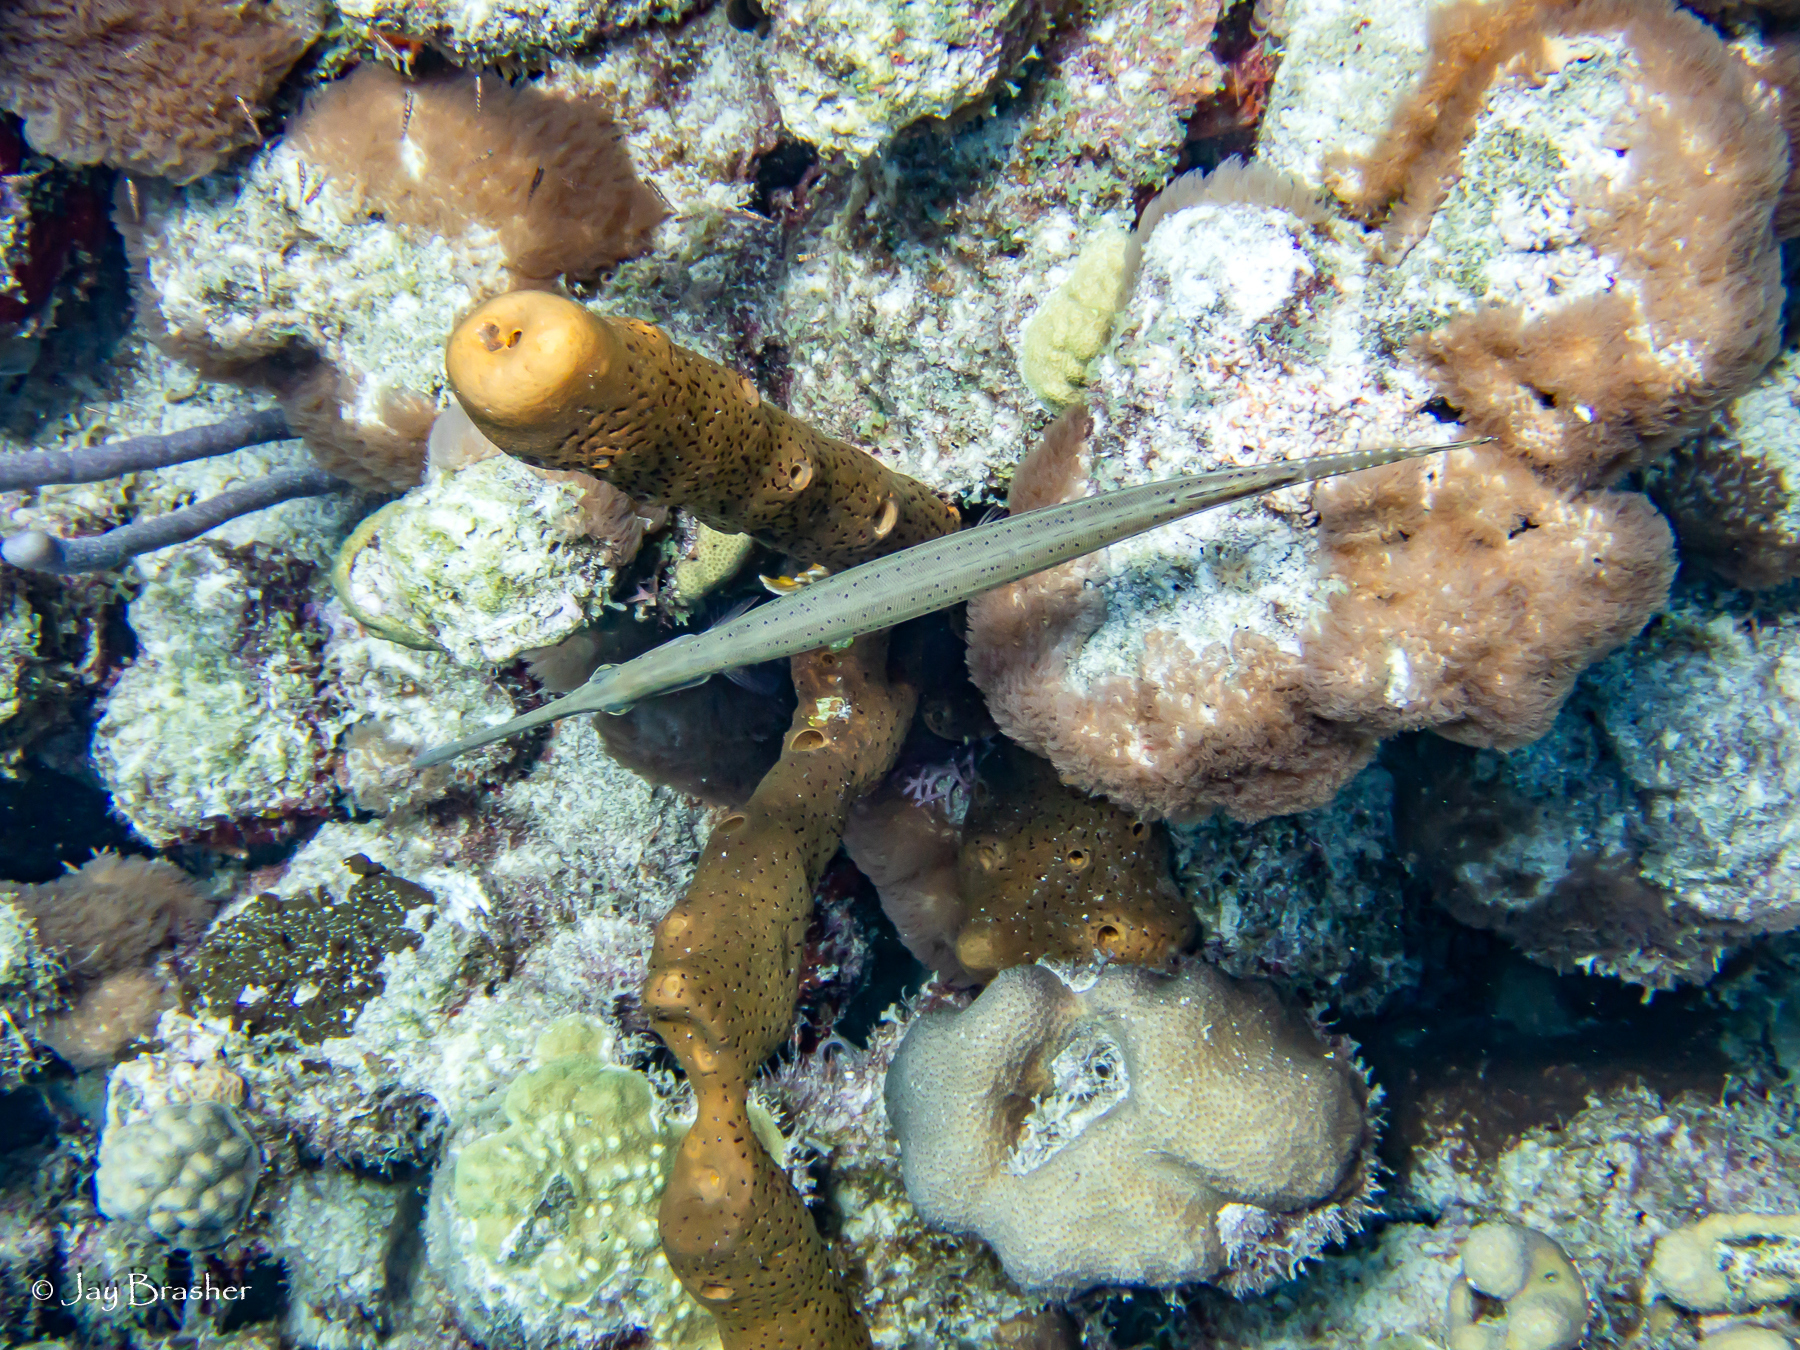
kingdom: Animalia
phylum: Chordata
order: Syngnathiformes
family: Aulostomidae
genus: Aulostomus
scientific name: Aulostomus maculatus
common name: West atlantic trumpetfish
